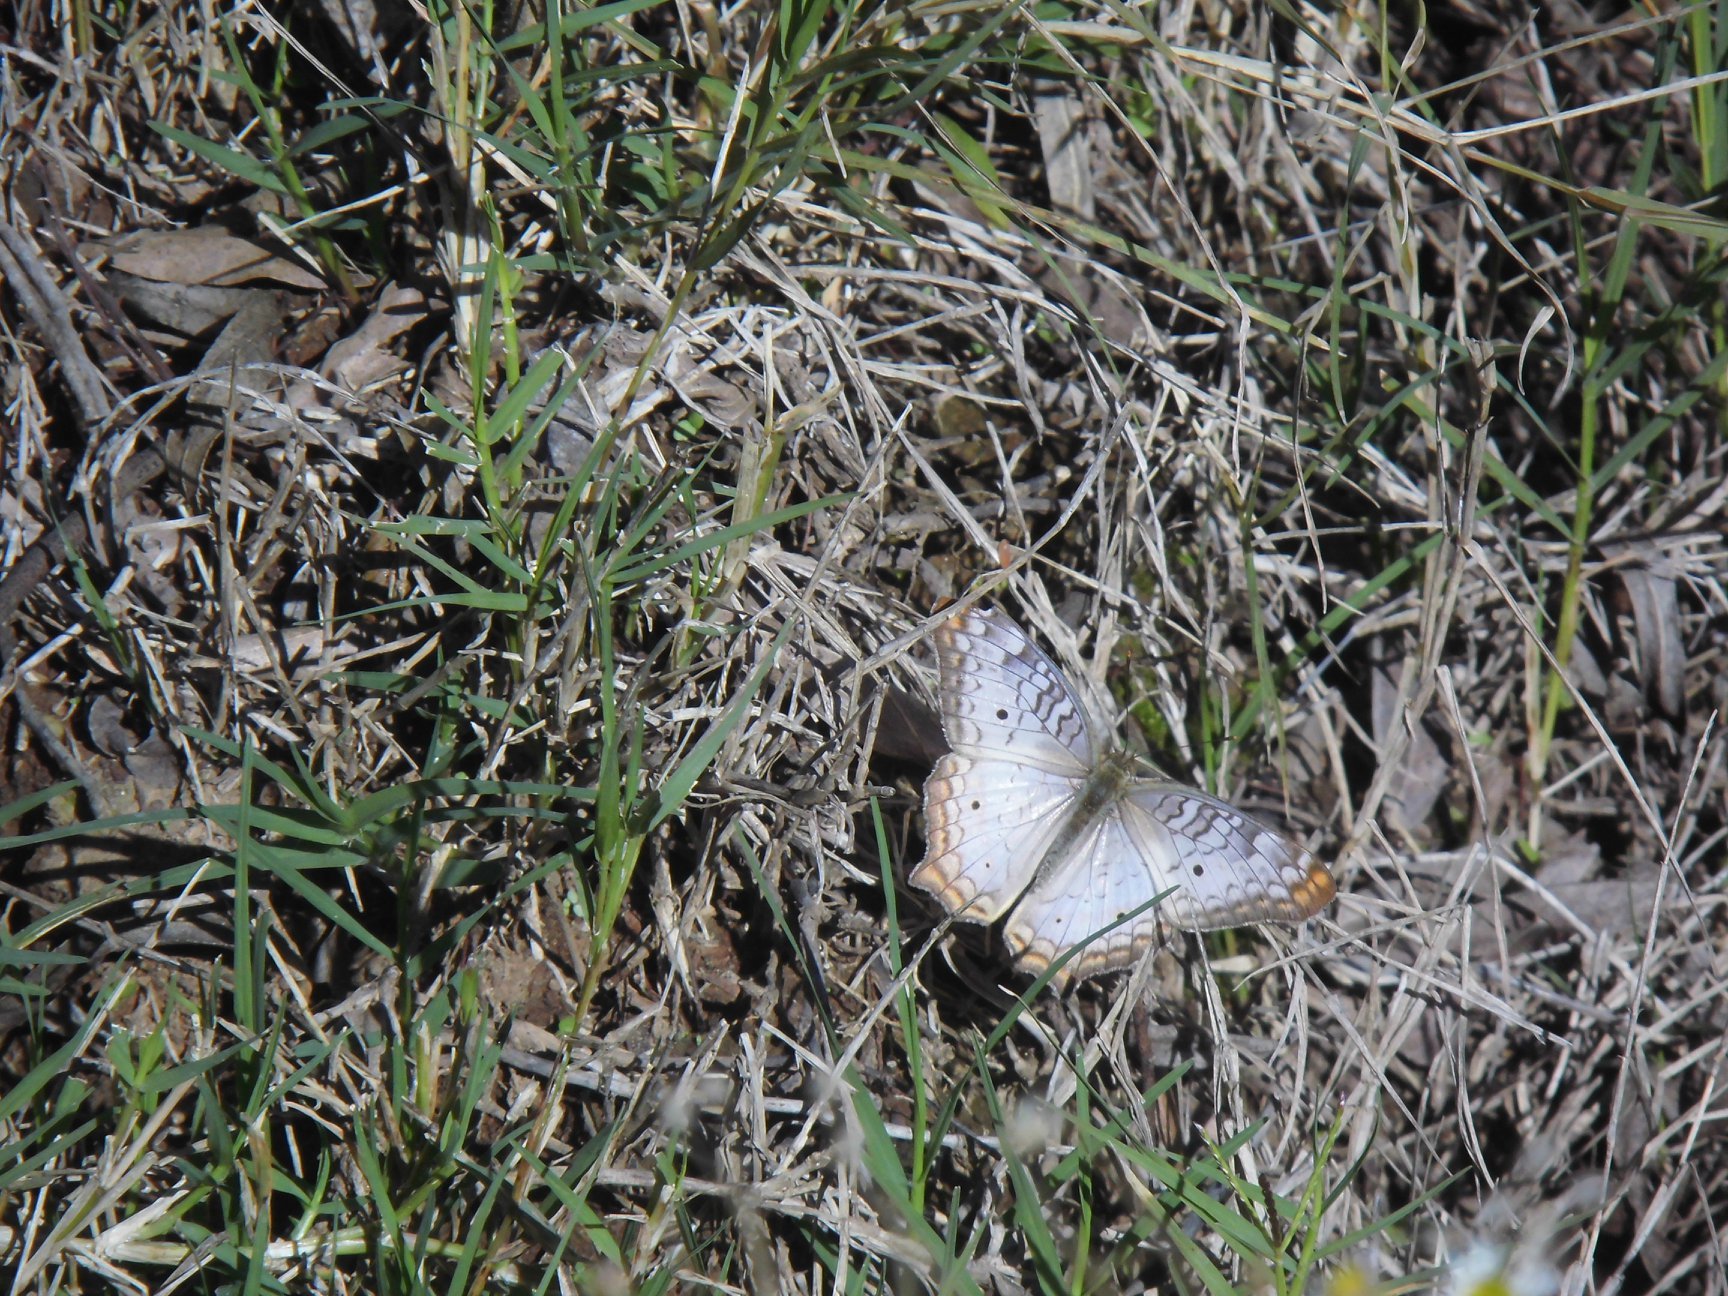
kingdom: Animalia
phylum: Arthropoda
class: Insecta
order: Lepidoptera
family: Nymphalidae
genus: Anartia
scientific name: Anartia jatrophae
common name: White peacock
